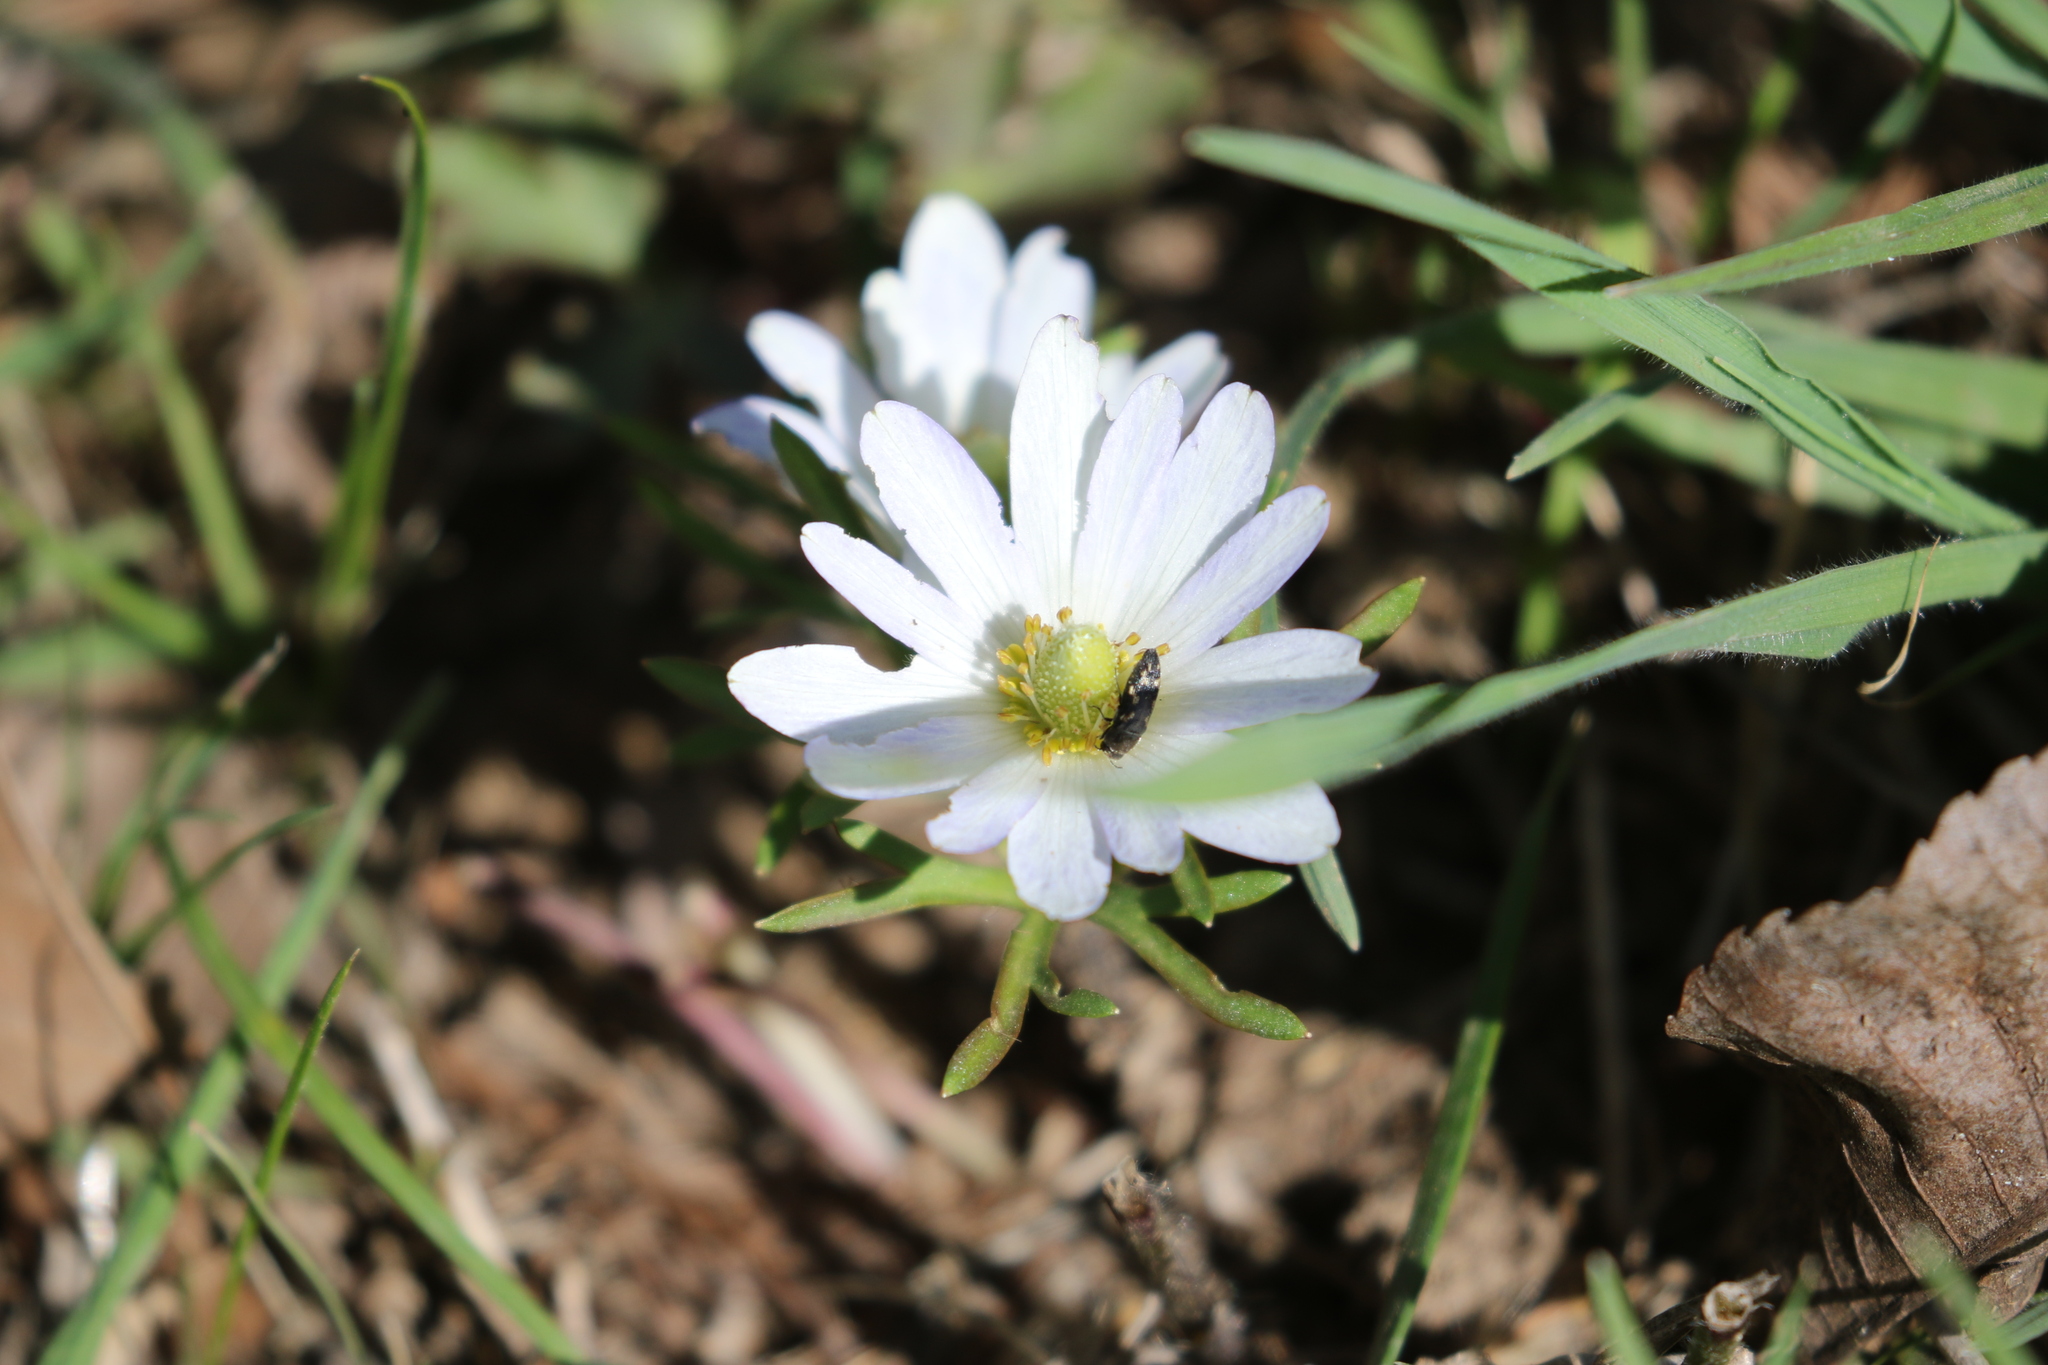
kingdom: Plantae
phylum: Tracheophyta
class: Magnoliopsida
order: Ranunculales
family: Ranunculaceae
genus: Anemone
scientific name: Anemone berlandieri
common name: Ten-petal anemone
